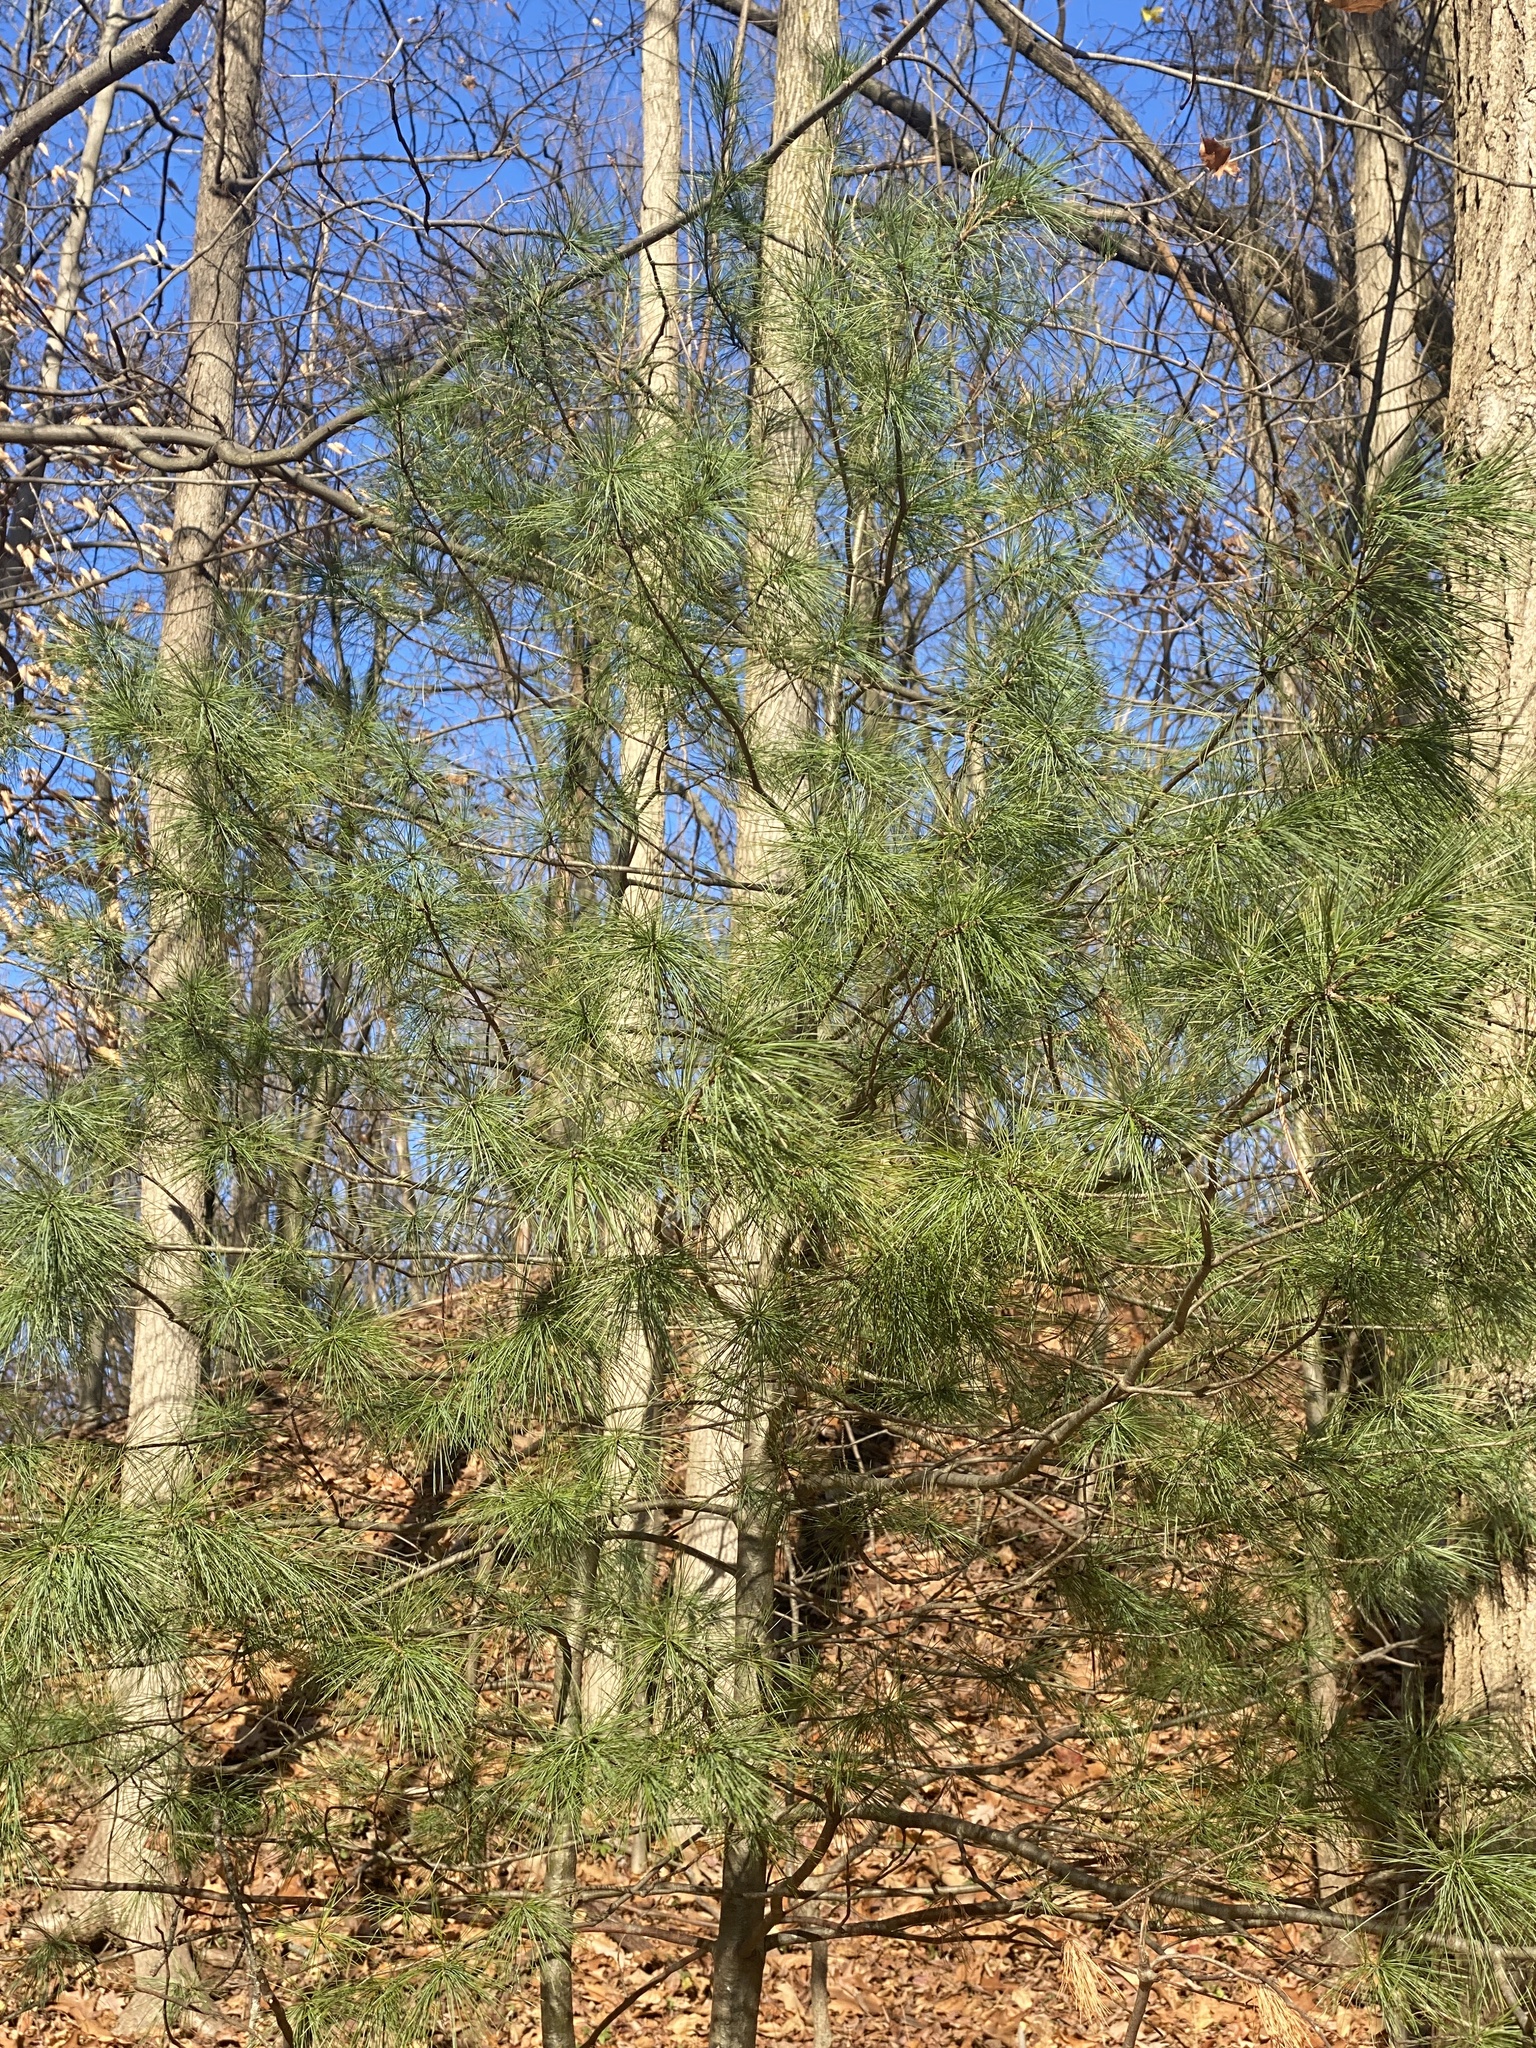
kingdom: Plantae
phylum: Tracheophyta
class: Pinopsida
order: Pinales
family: Pinaceae
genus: Pinus
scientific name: Pinus strobus
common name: Weymouth pine
